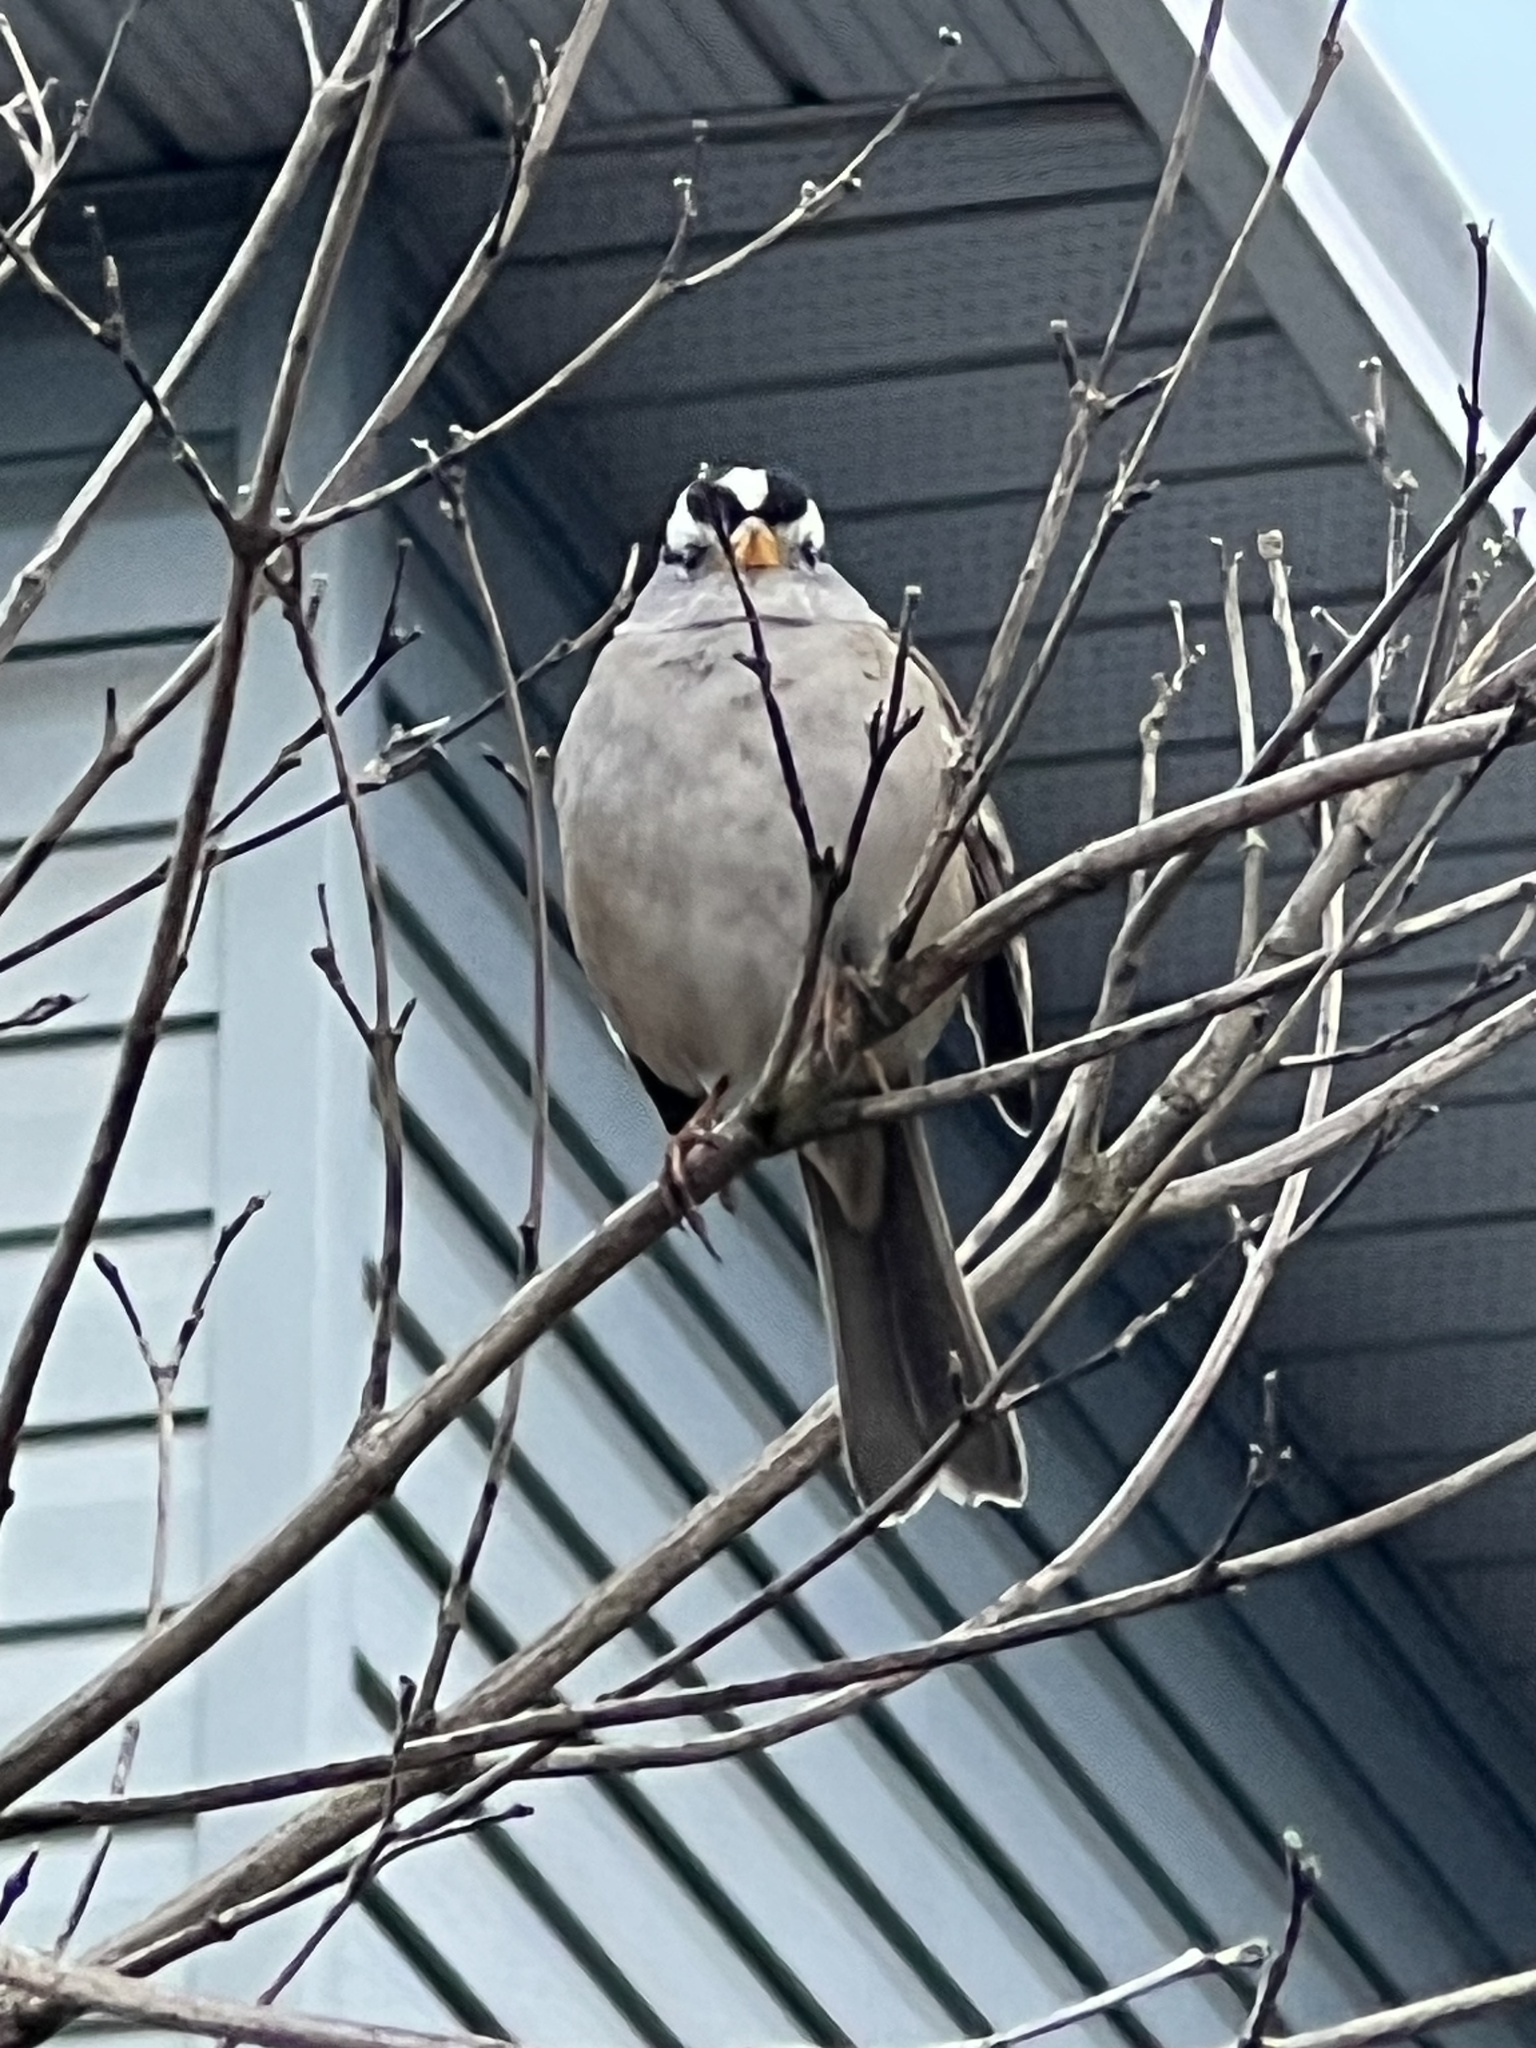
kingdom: Animalia
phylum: Chordata
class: Aves
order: Passeriformes
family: Passerellidae
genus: Zonotrichia
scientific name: Zonotrichia leucophrys
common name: White-crowned sparrow
